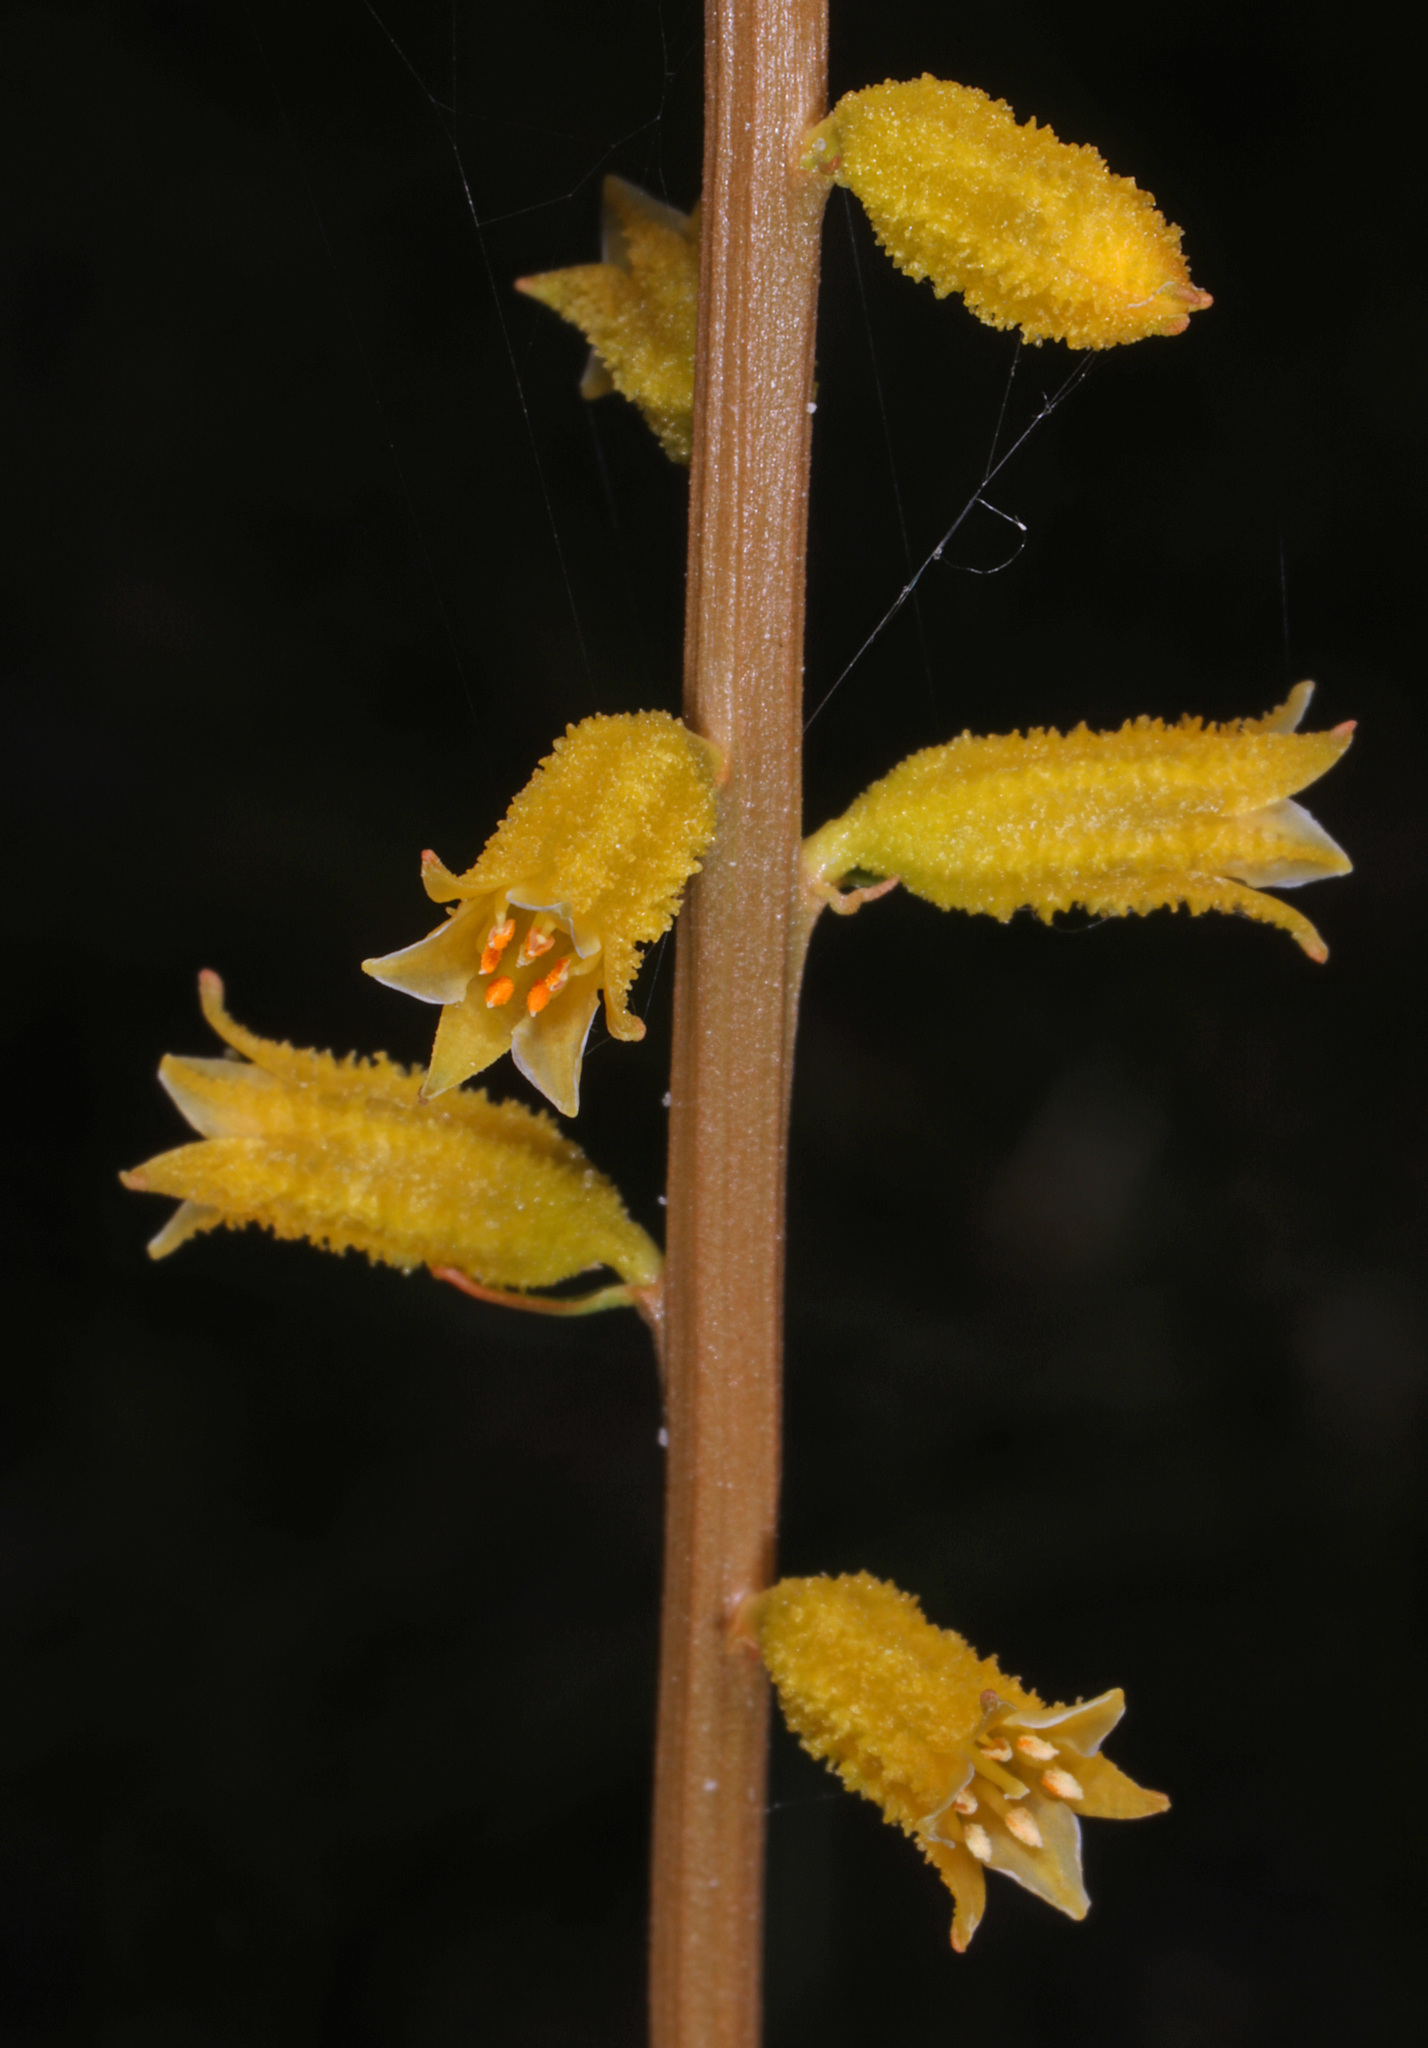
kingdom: Plantae
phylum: Tracheophyta
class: Liliopsida
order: Dioscoreales
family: Nartheciaceae
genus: Aletris
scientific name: Aletris lutea
